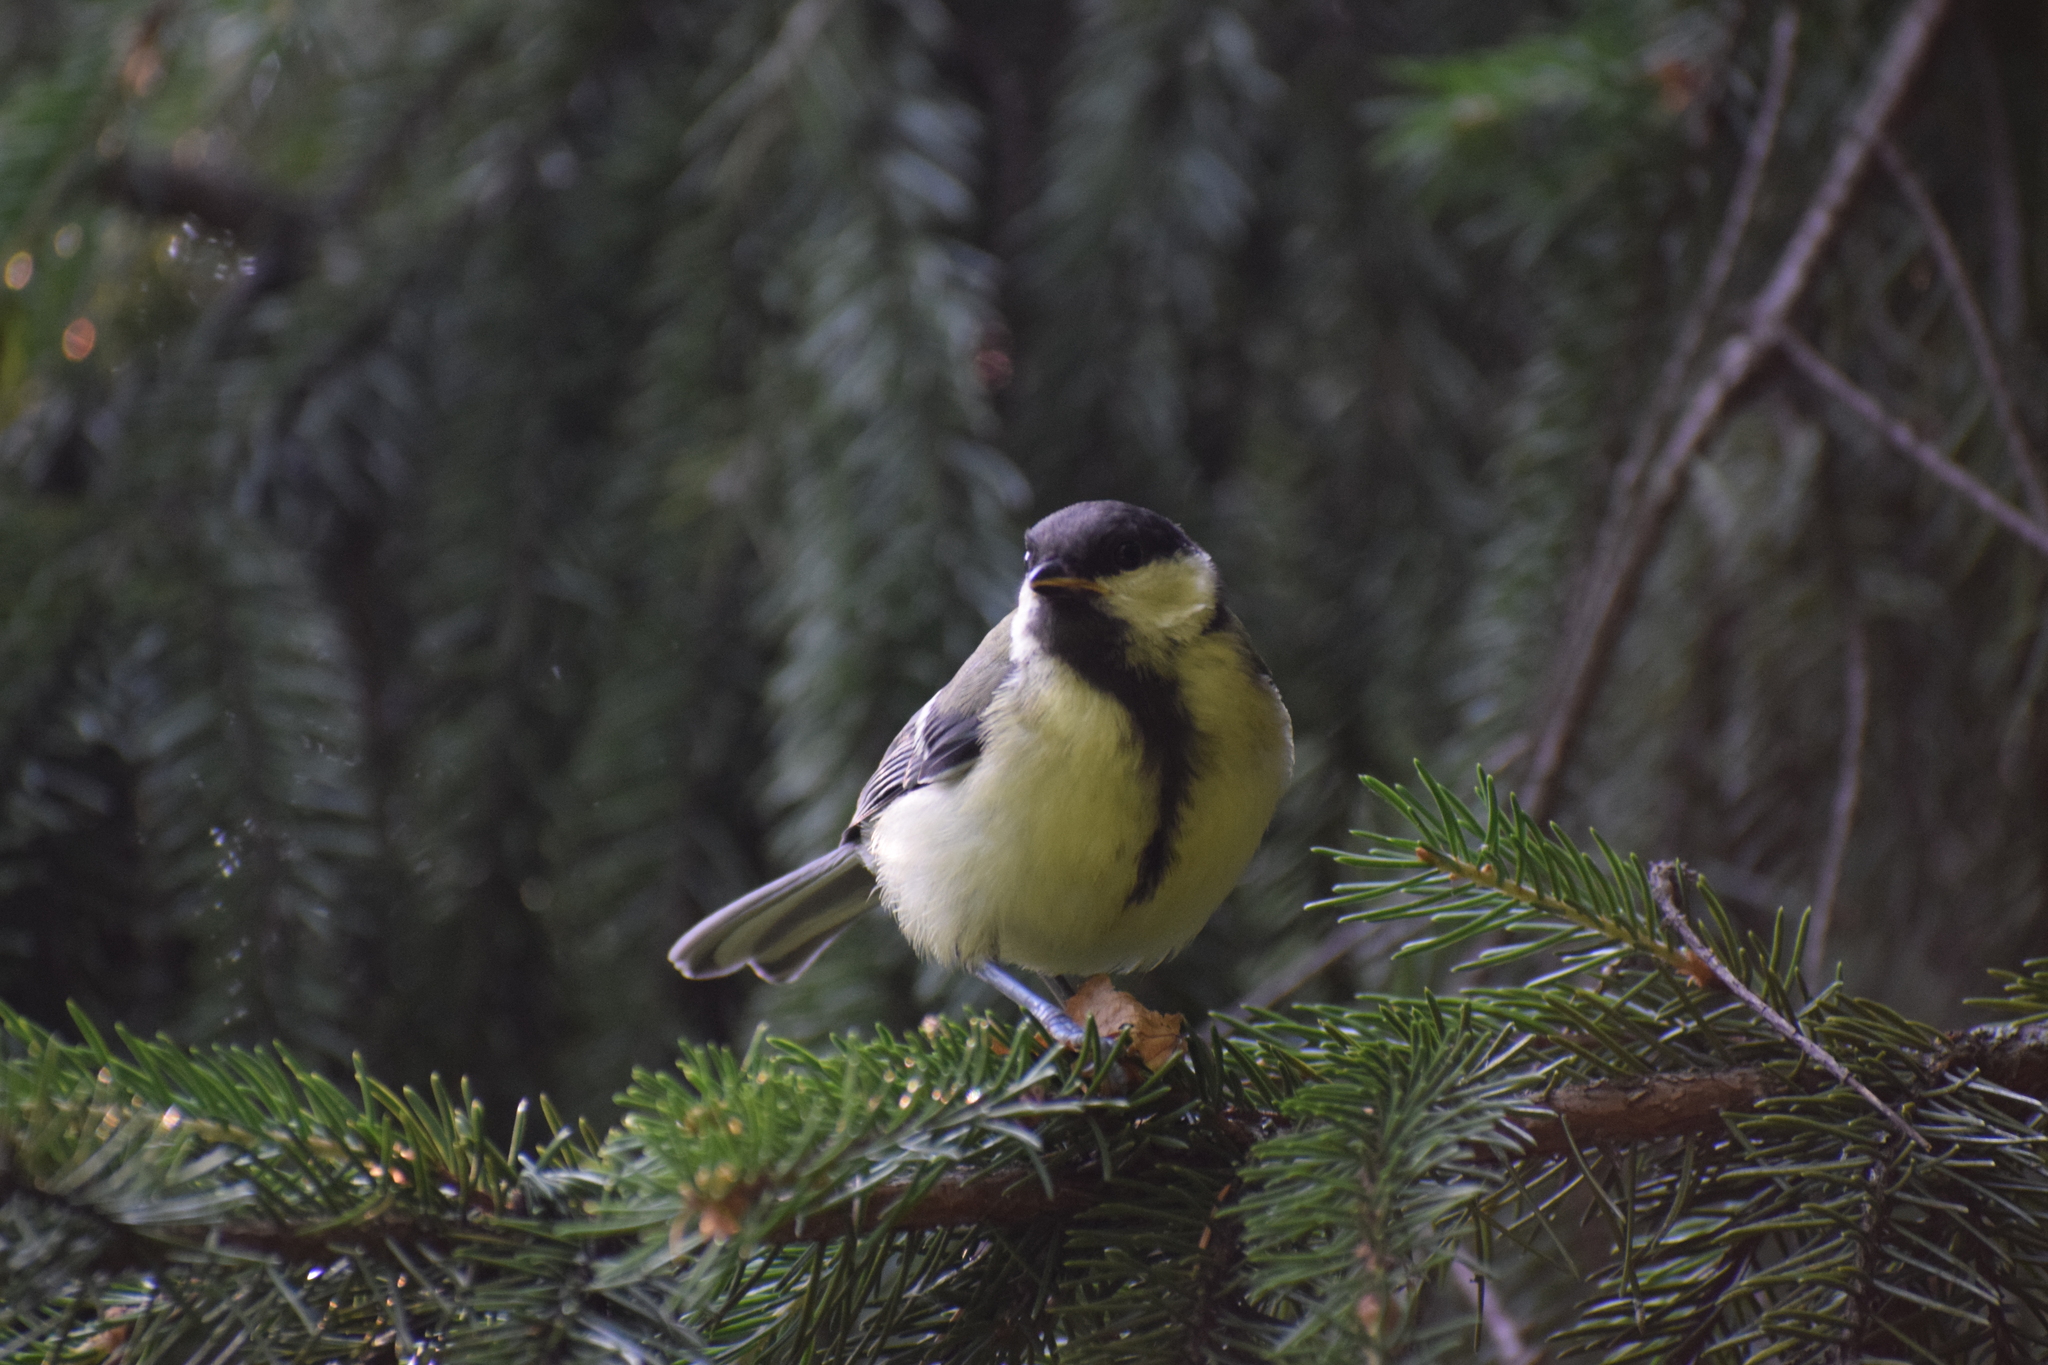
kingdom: Animalia
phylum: Chordata
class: Aves
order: Passeriformes
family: Paridae
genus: Parus
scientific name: Parus major
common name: Great tit
